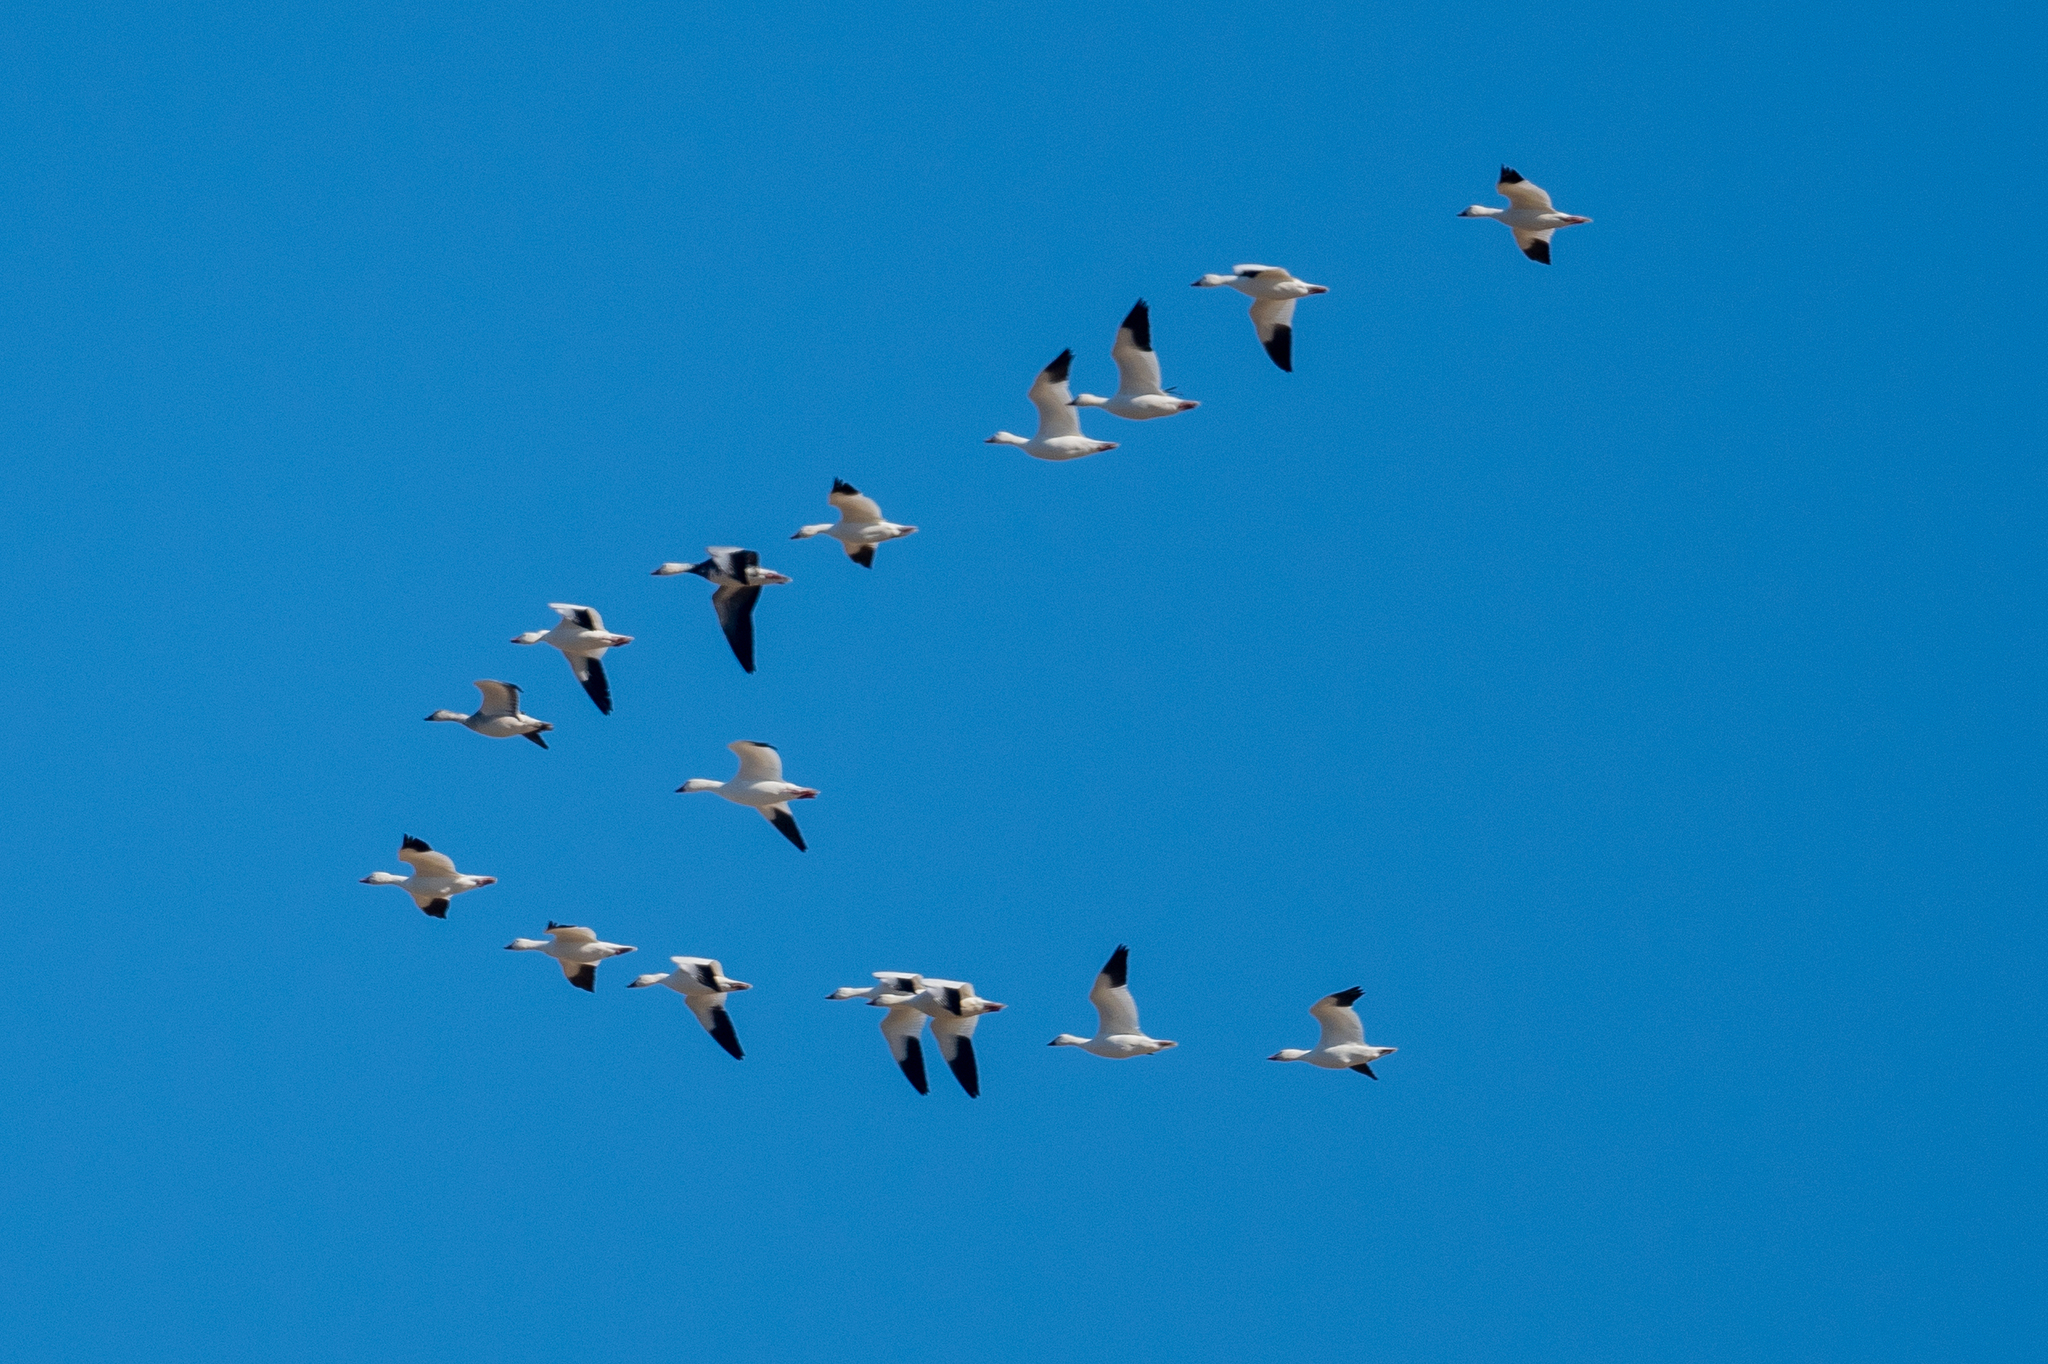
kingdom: Animalia
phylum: Chordata
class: Aves
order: Anseriformes
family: Anatidae
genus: Anser
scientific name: Anser caerulescens
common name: Snow goose
